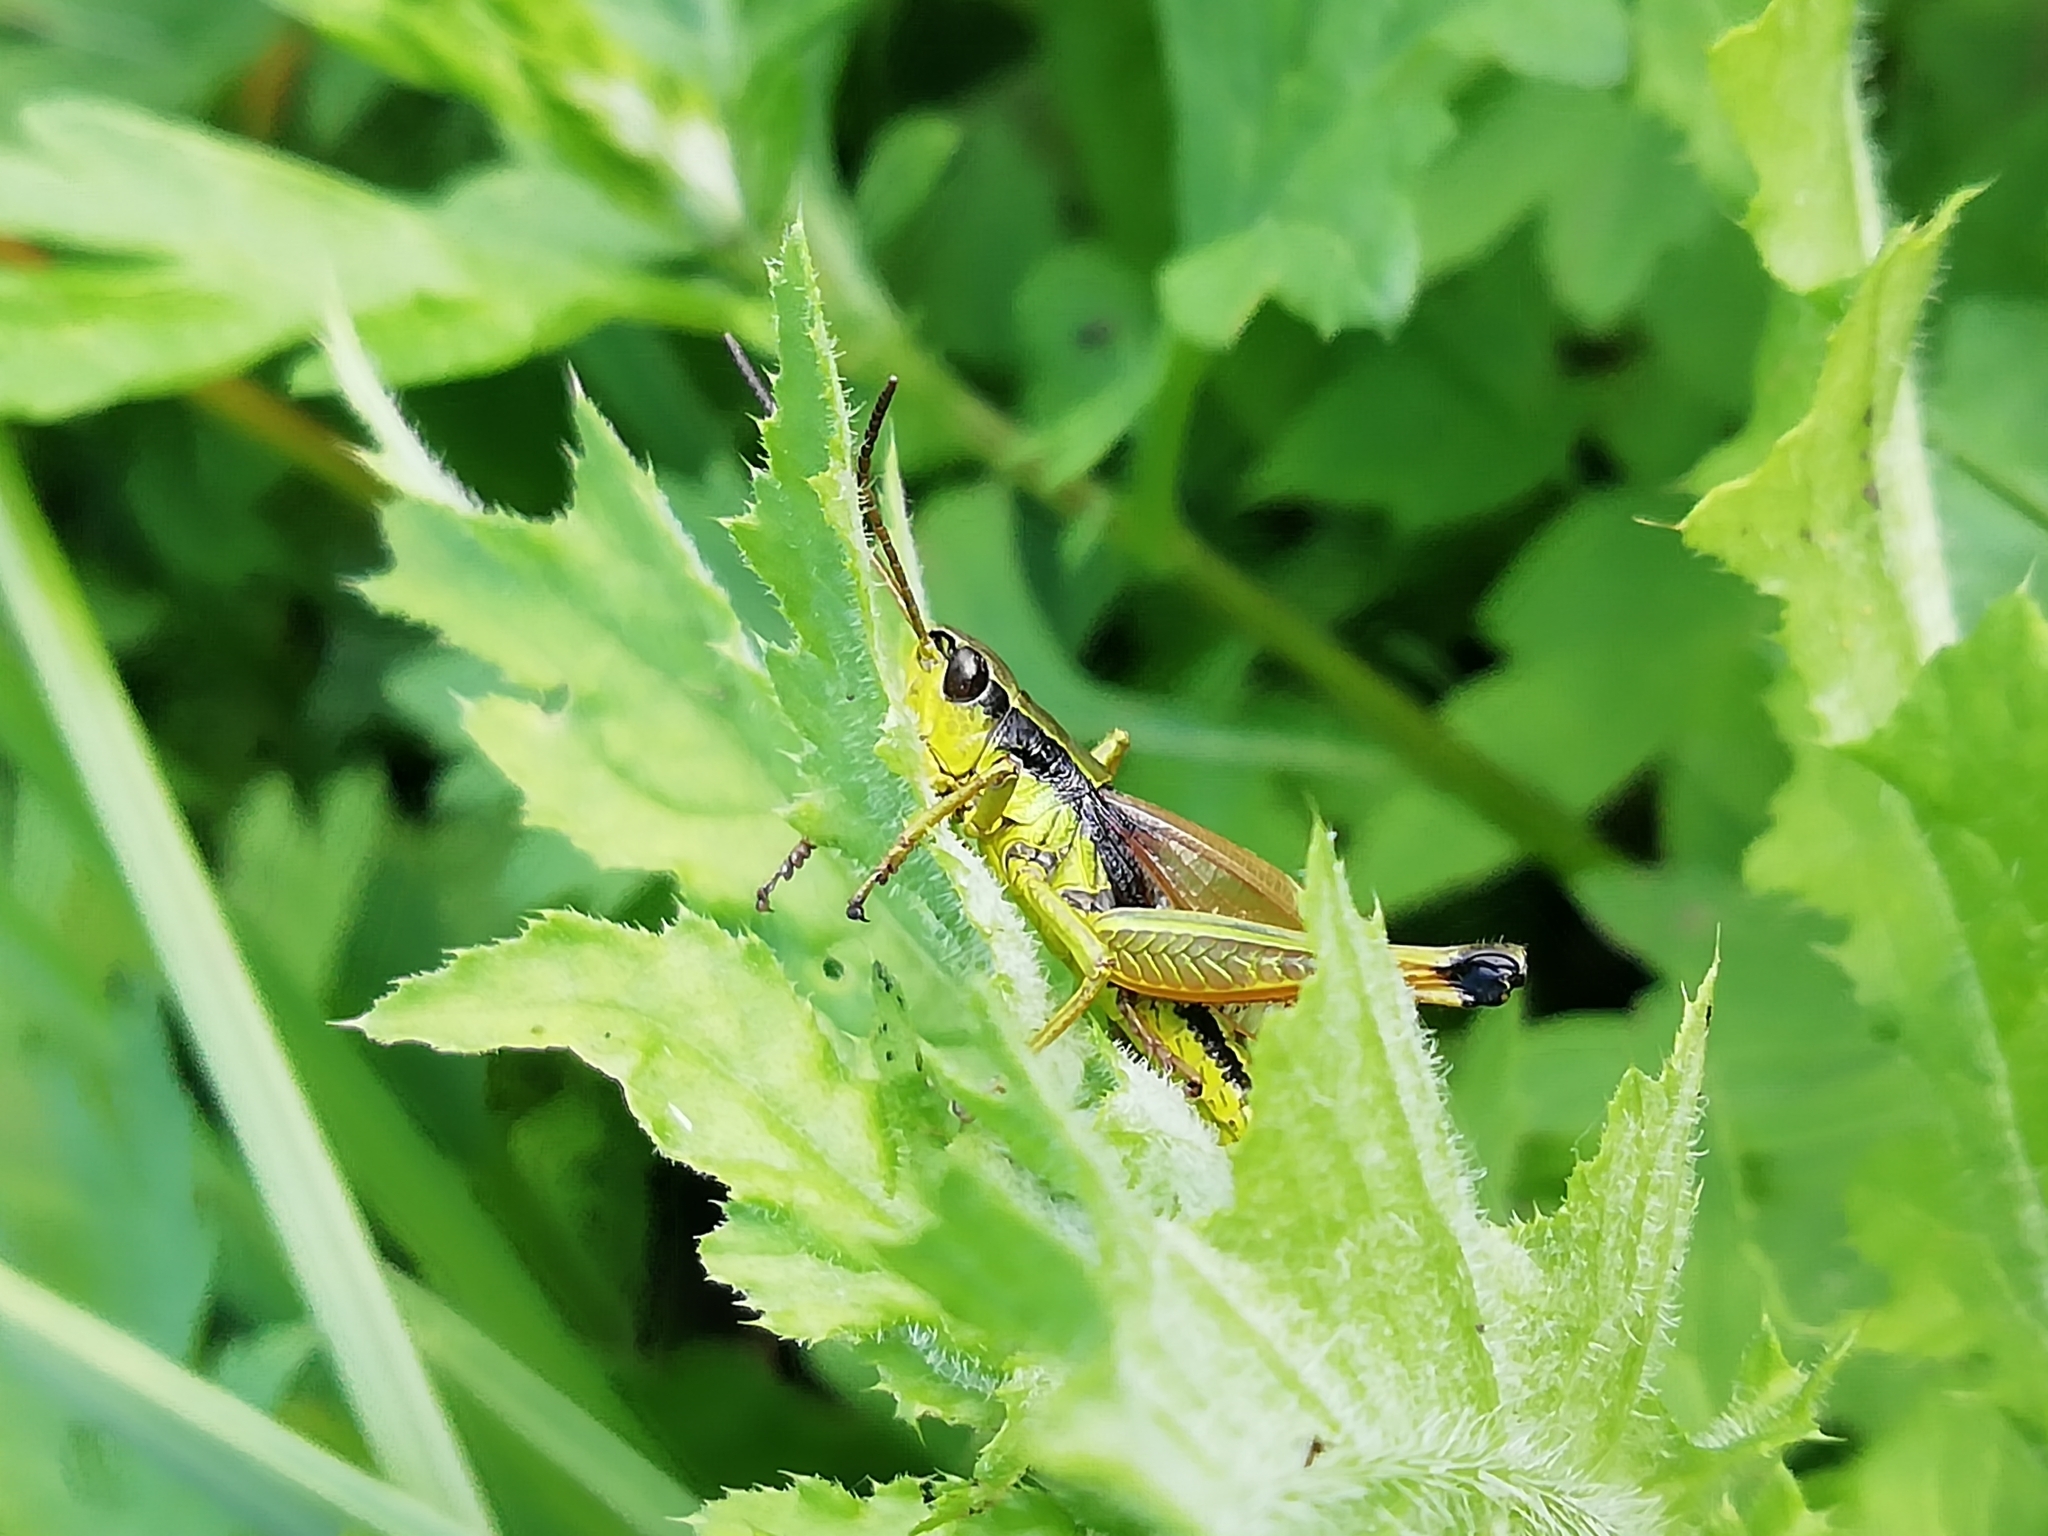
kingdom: Animalia
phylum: Arthropoda
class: Insecta
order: Orthoptera
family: Acrididae
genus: Podismopsis
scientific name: Podismopsis poppiusi
